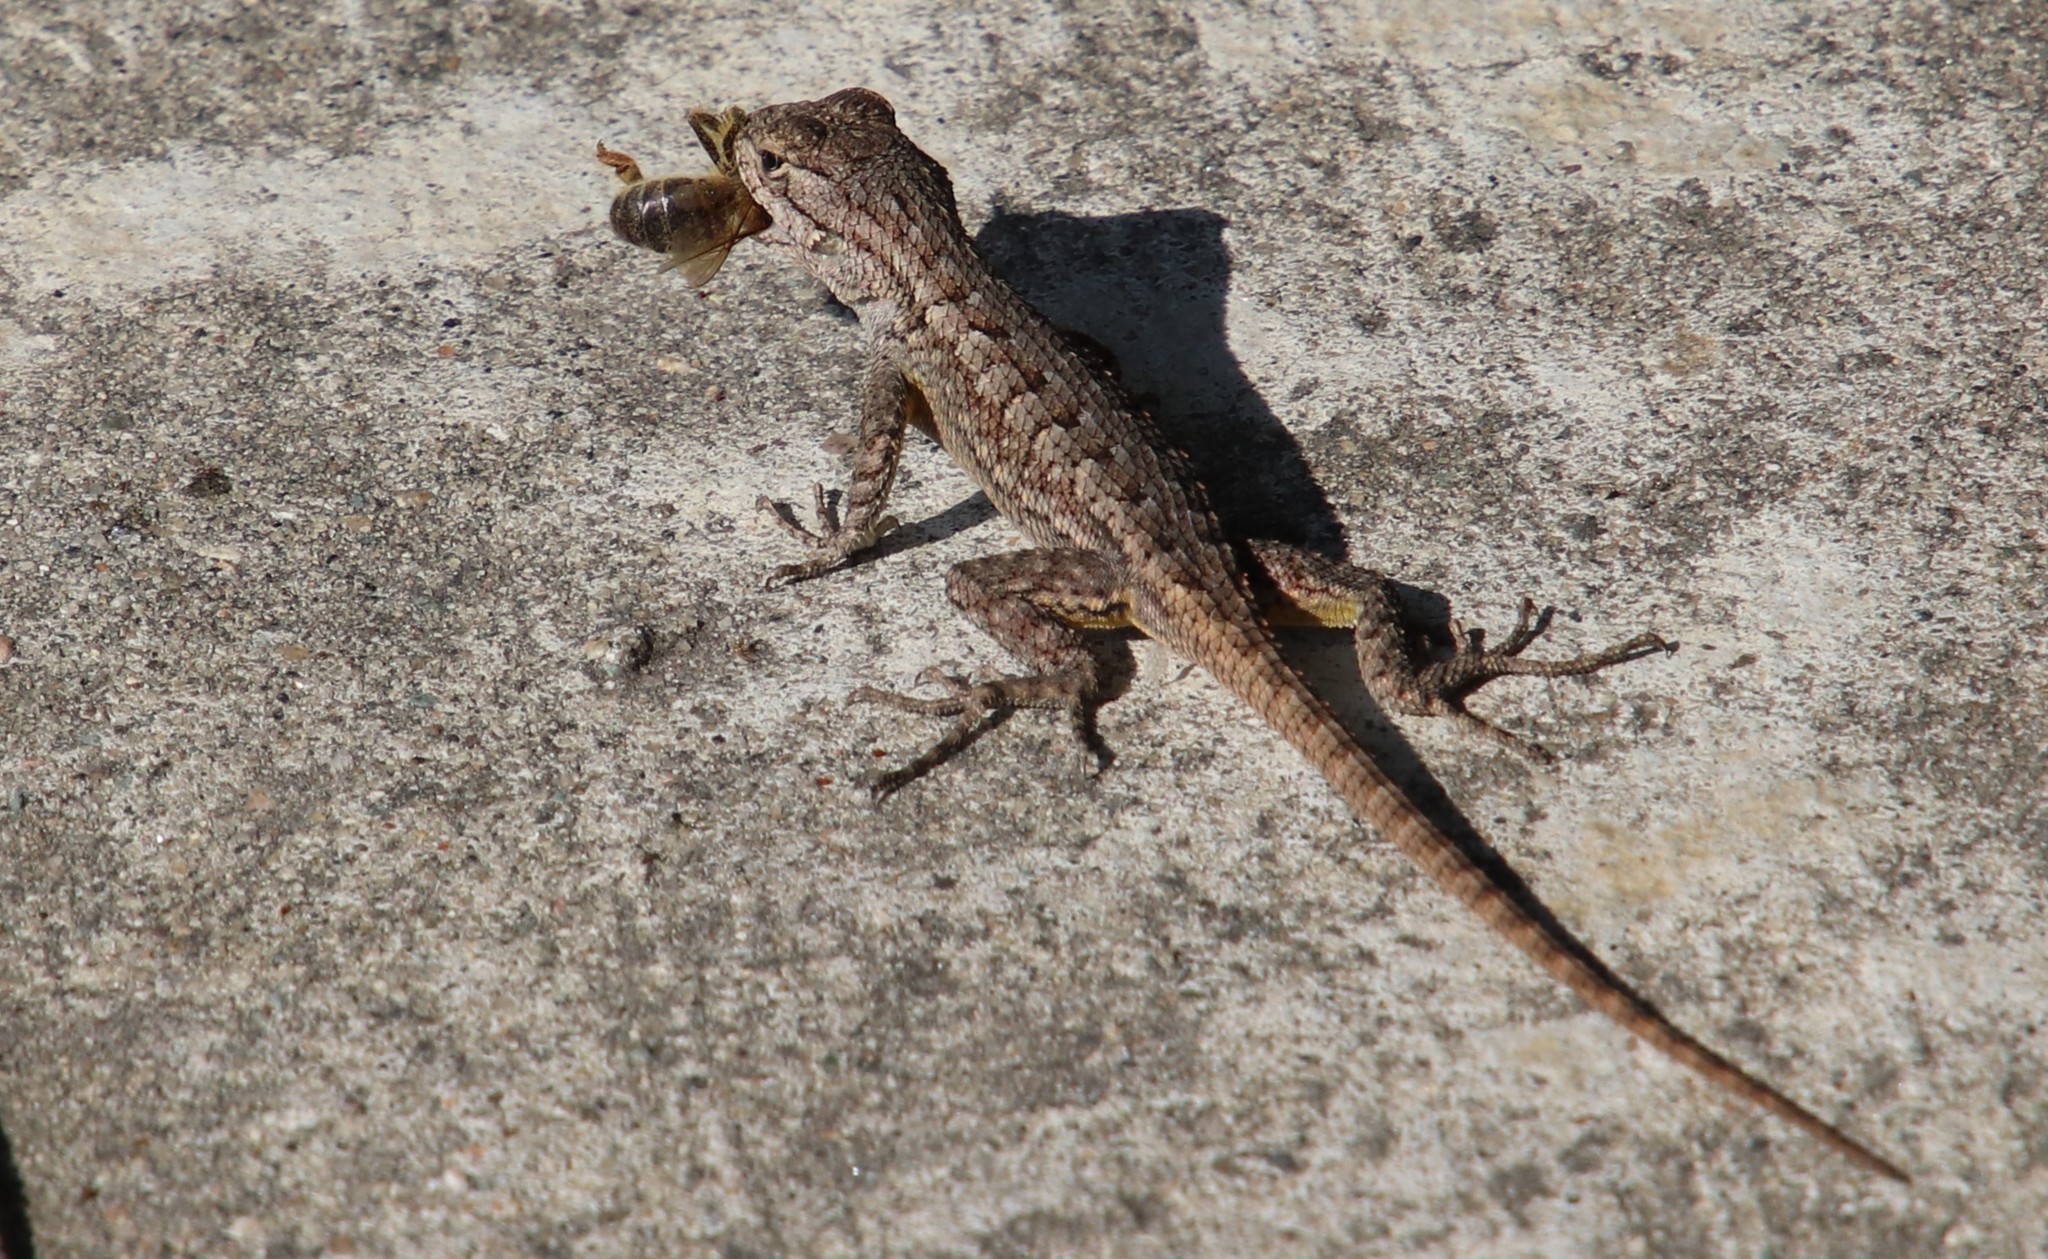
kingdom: Animalia
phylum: Chordata
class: Squamata
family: Phrynosomatidae
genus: Sceloporus
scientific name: Sceloporus occidentalis
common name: Western fence lizard
